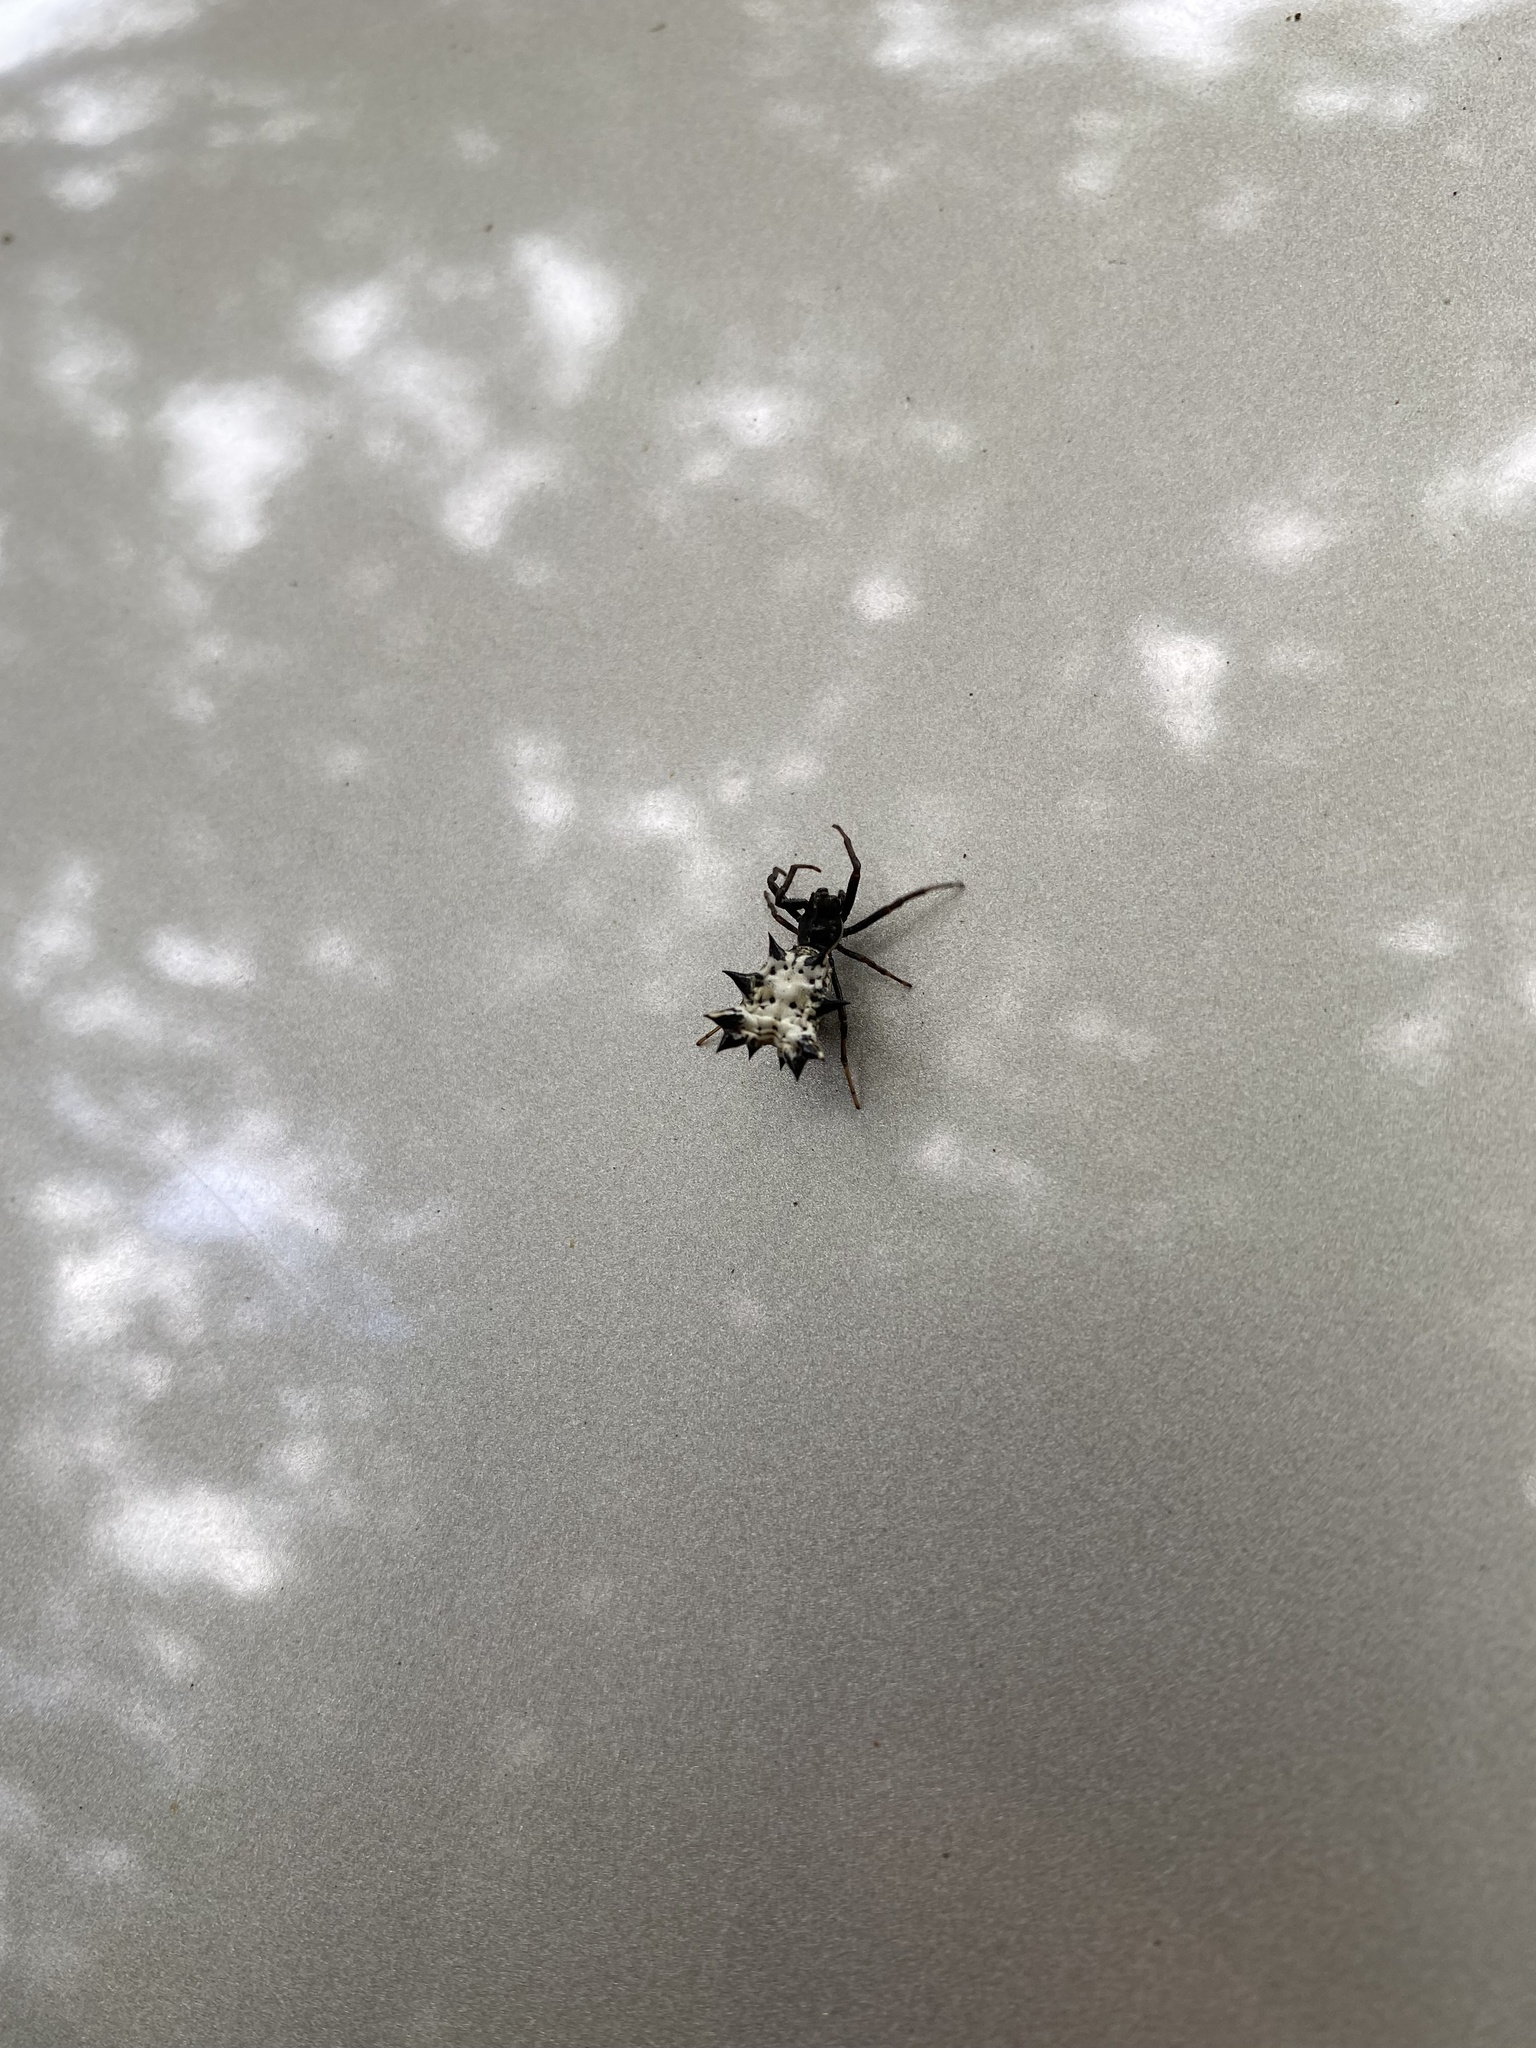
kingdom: Animalia
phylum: Arthropoda
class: Arachnida
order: Araneae
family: Araneidae
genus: Micrathena
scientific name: Micrathena gracilis
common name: Orb weavers
